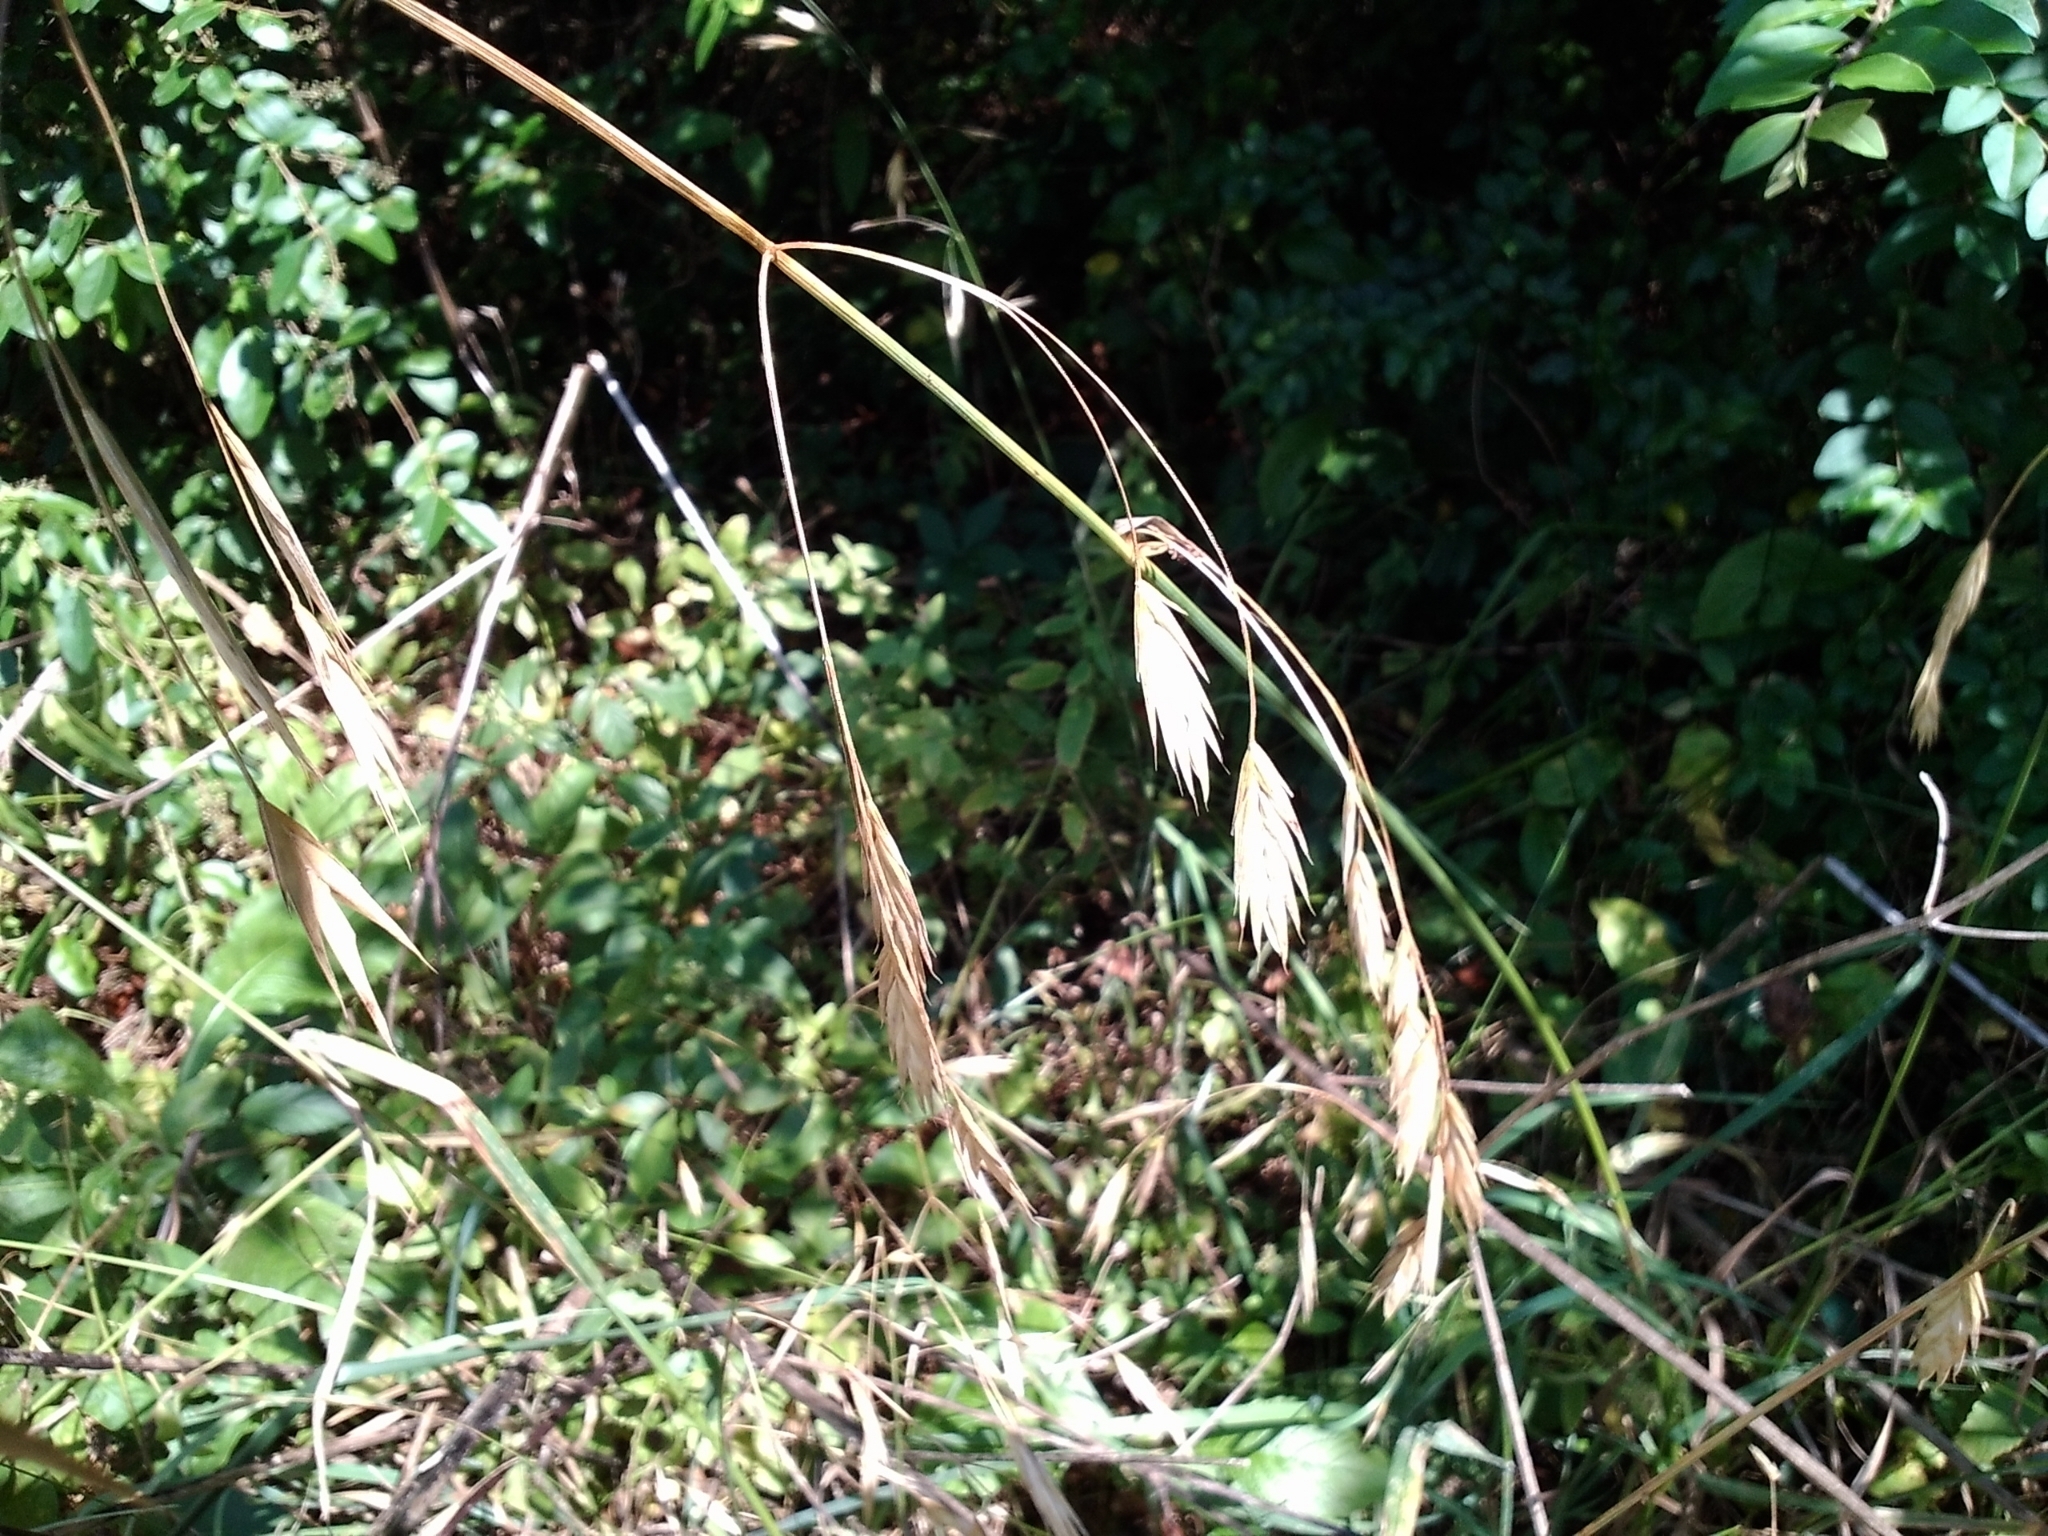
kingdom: Plantae
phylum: Tracheophyta
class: Liliopsida
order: Poales
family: Poaceae
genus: Bromus
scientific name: Bromus catharticus
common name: Rescuegrass
